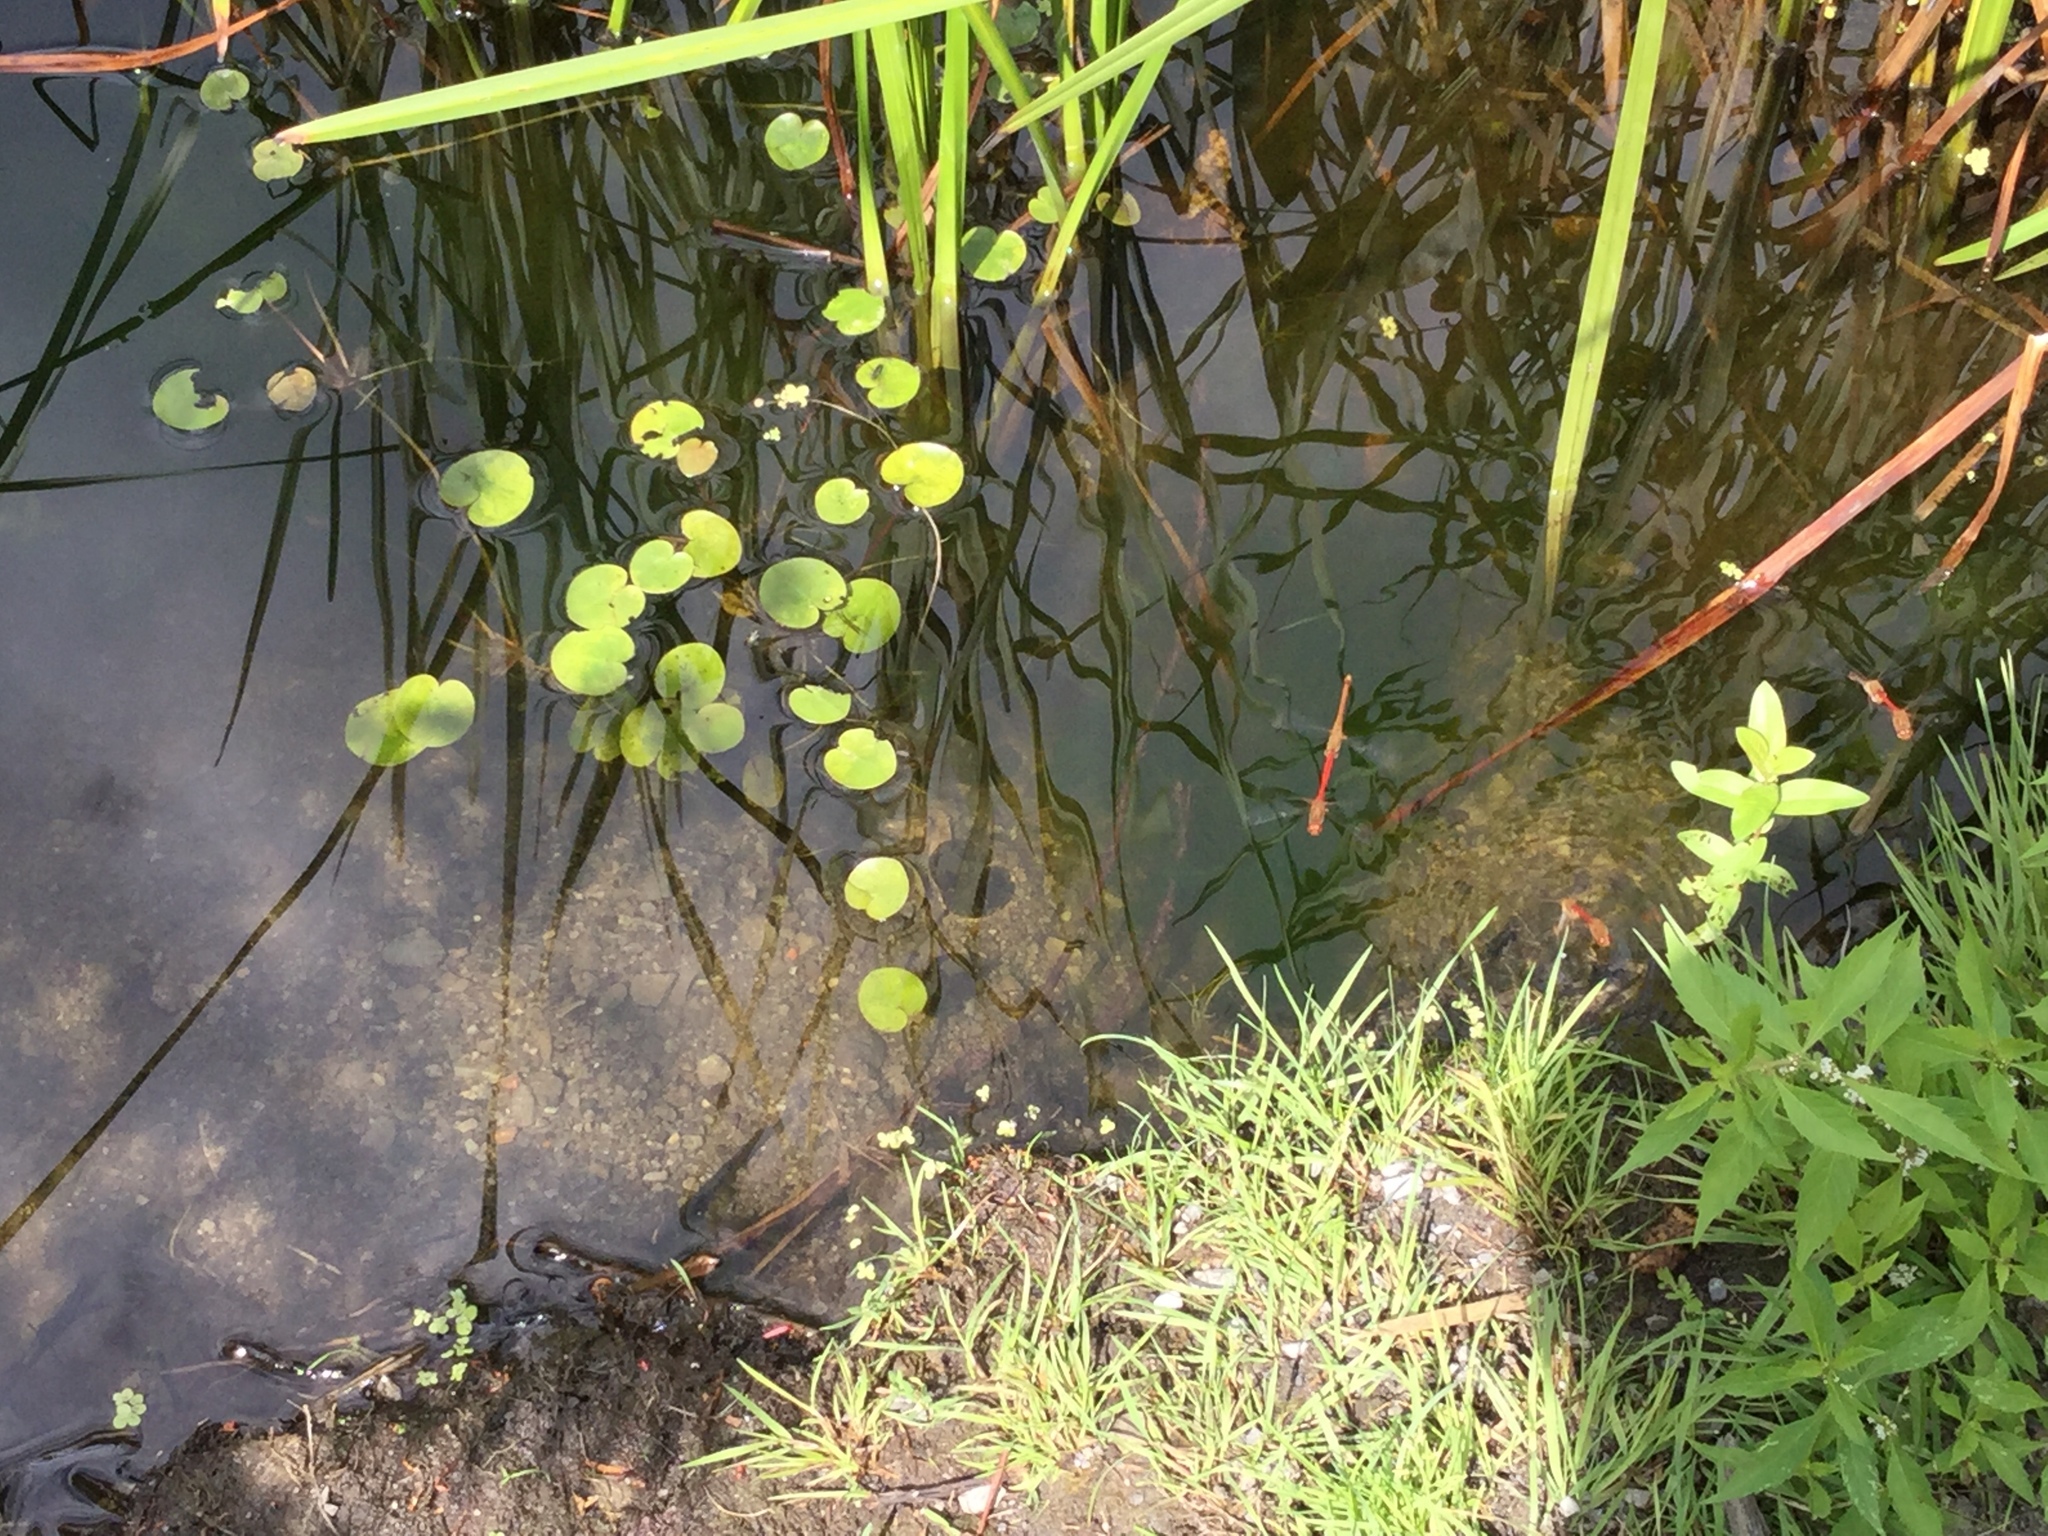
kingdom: Animalia
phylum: Arthropoda
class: Insecta
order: Odonata
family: Libellulidae
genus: Sympetrum
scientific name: Sympetrum vicinum
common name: Autumn meadowhawk
